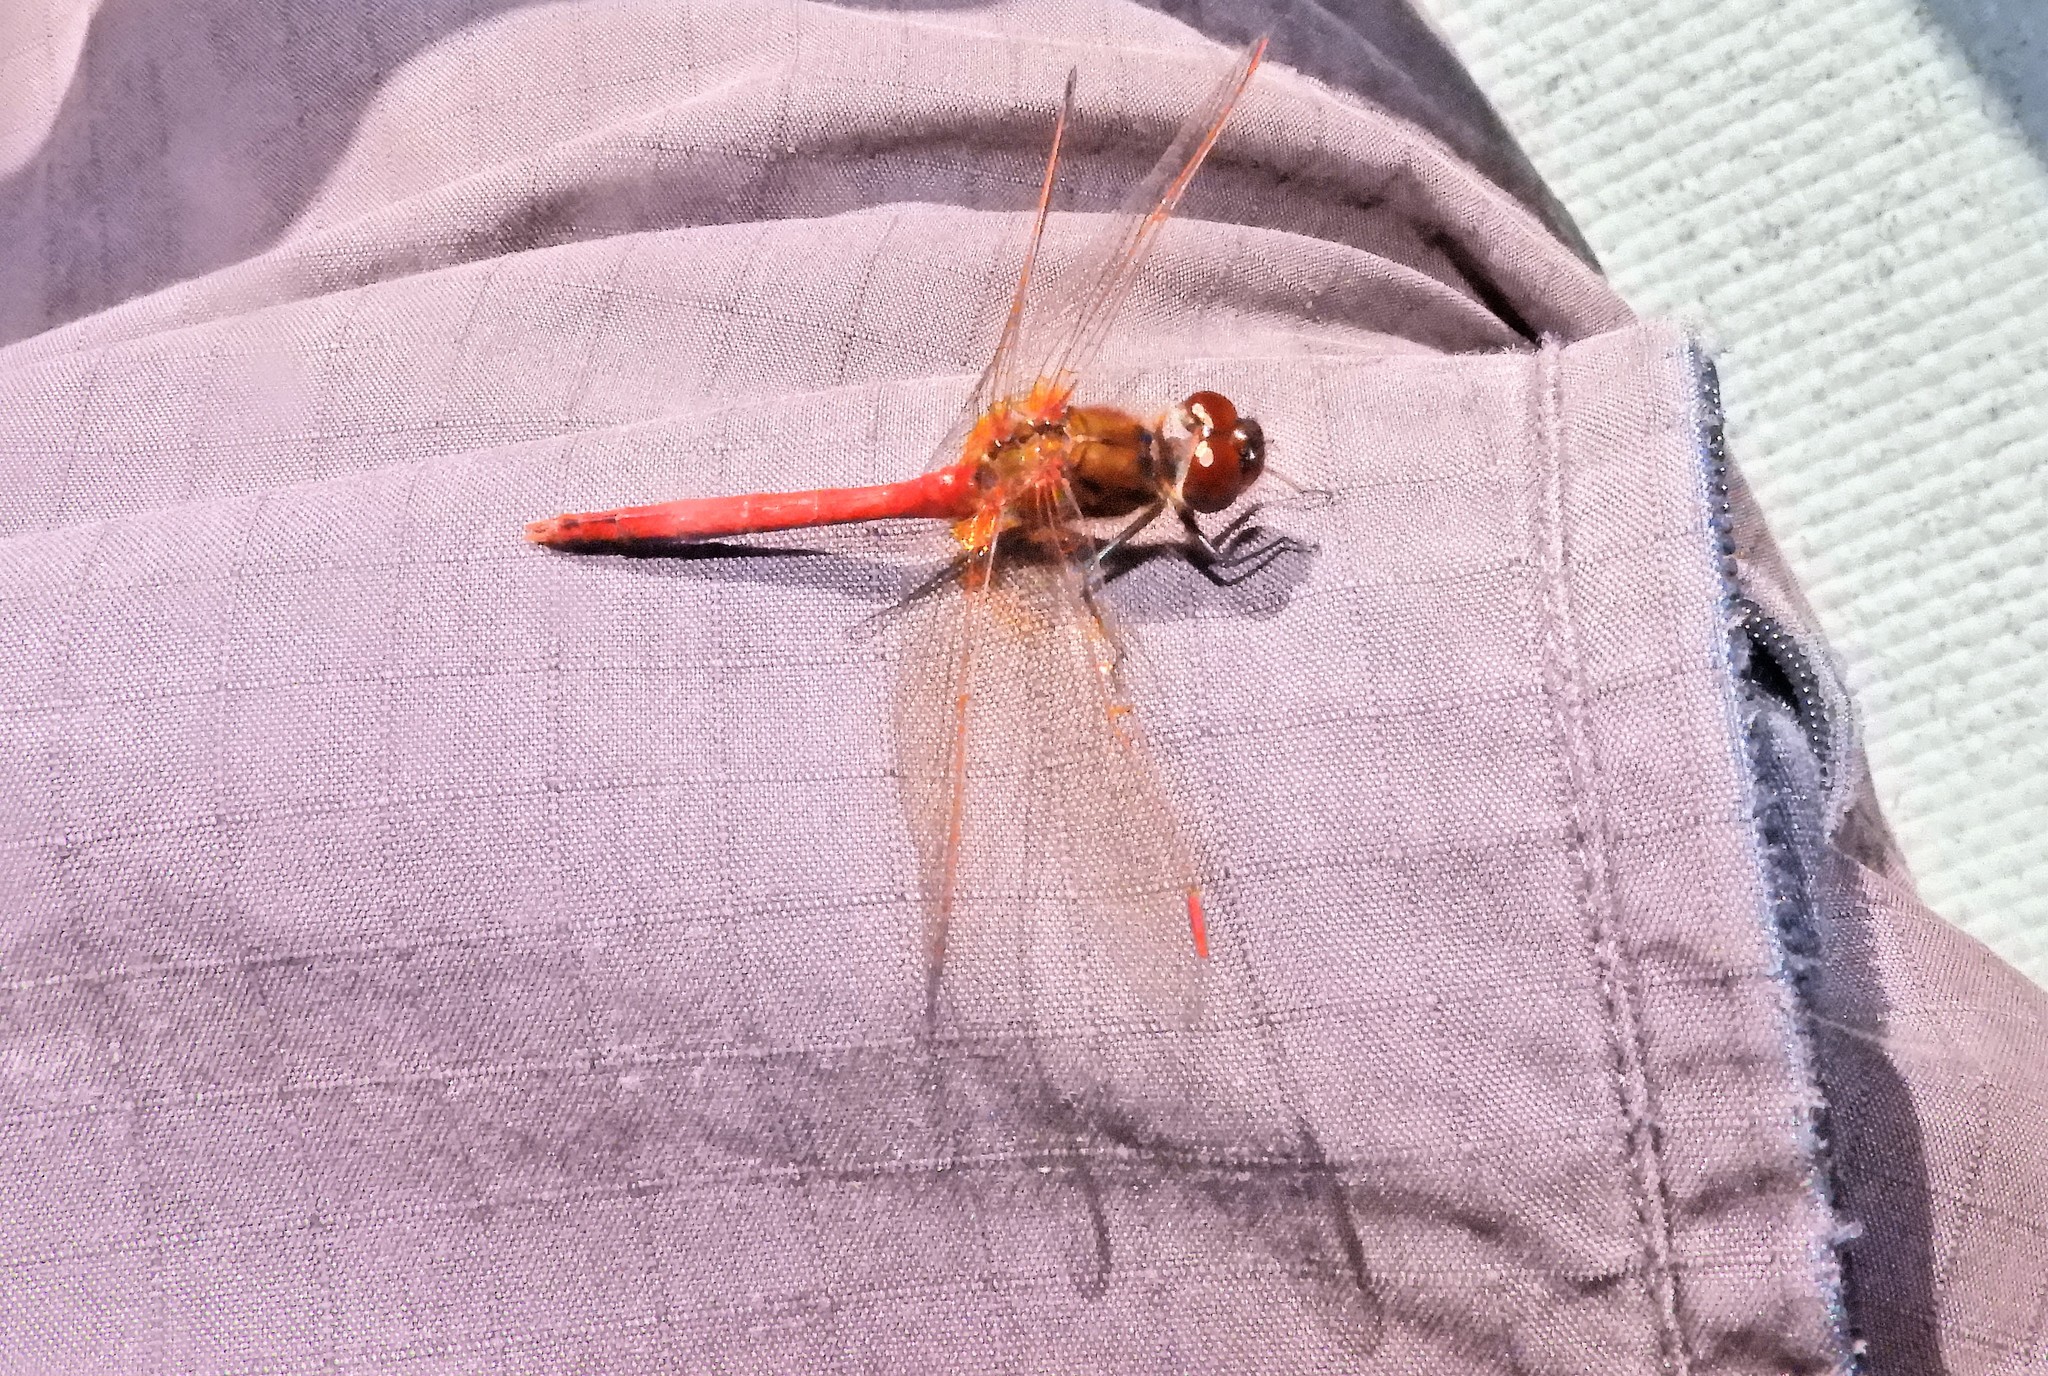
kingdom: Animalia
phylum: Arthropoda
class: Insecta
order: Odonata
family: Libellulidae
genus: Sympetrum
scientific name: Sympetrum costiferum
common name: Saffron-winged meadowhawk
